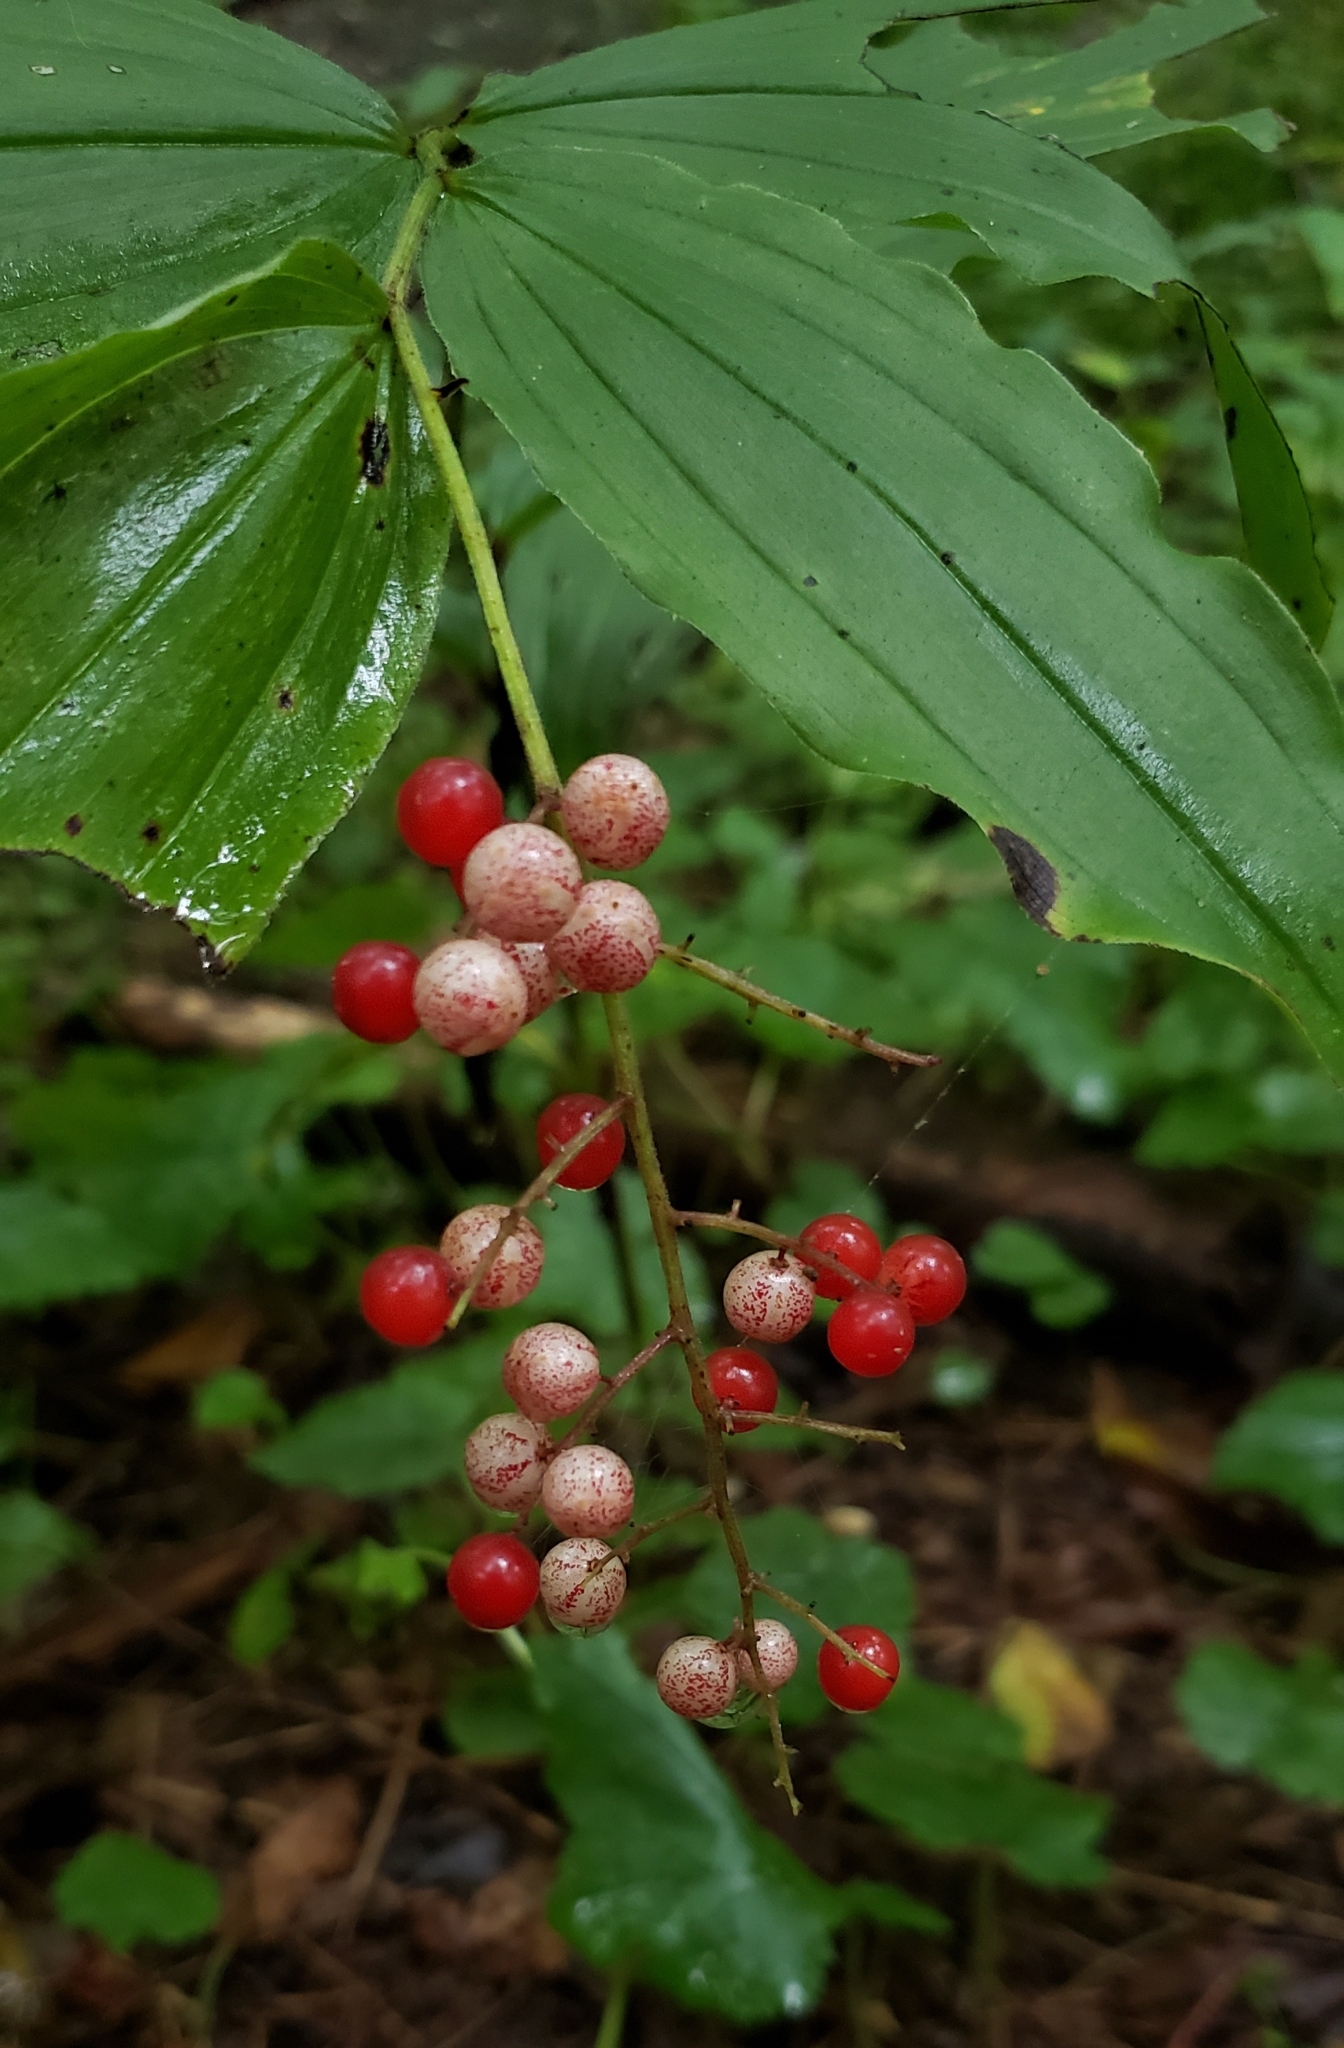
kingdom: Plantae
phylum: Tracheophyta
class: Liliopsida
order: Asparagales
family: Asparagaceae
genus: Maianthemum
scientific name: Maianthemum racemosum
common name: False spikenard
